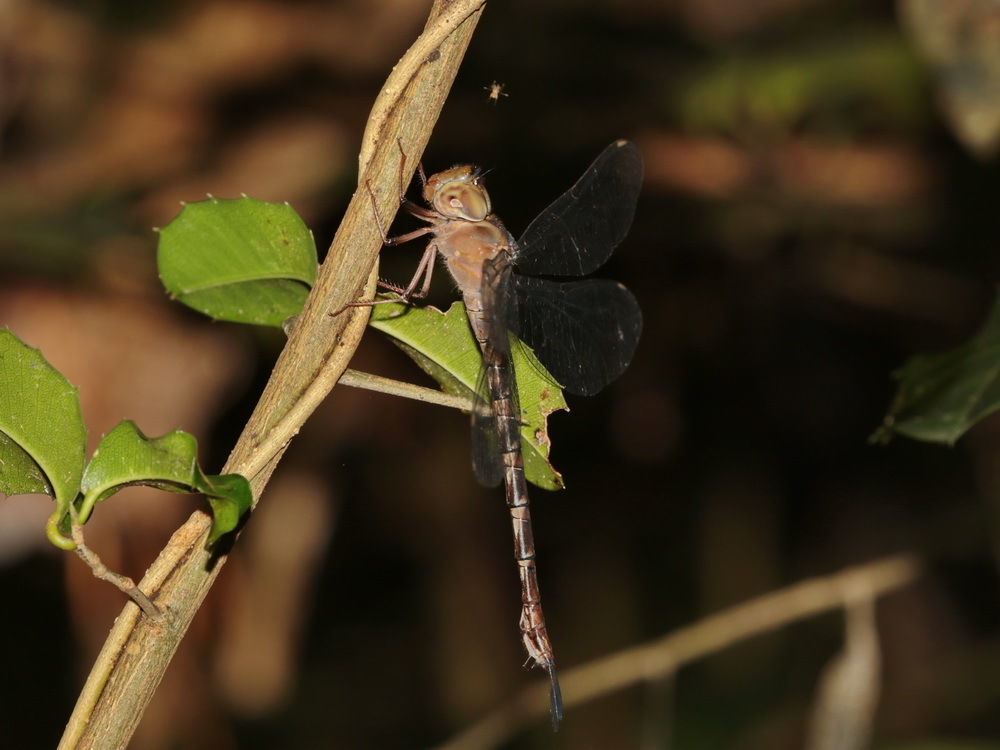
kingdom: Animalia
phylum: Arthropoda
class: Insecta
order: Odonata
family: Aeshnidae
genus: Gynacantha
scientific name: Gynacantha subinterrupta
